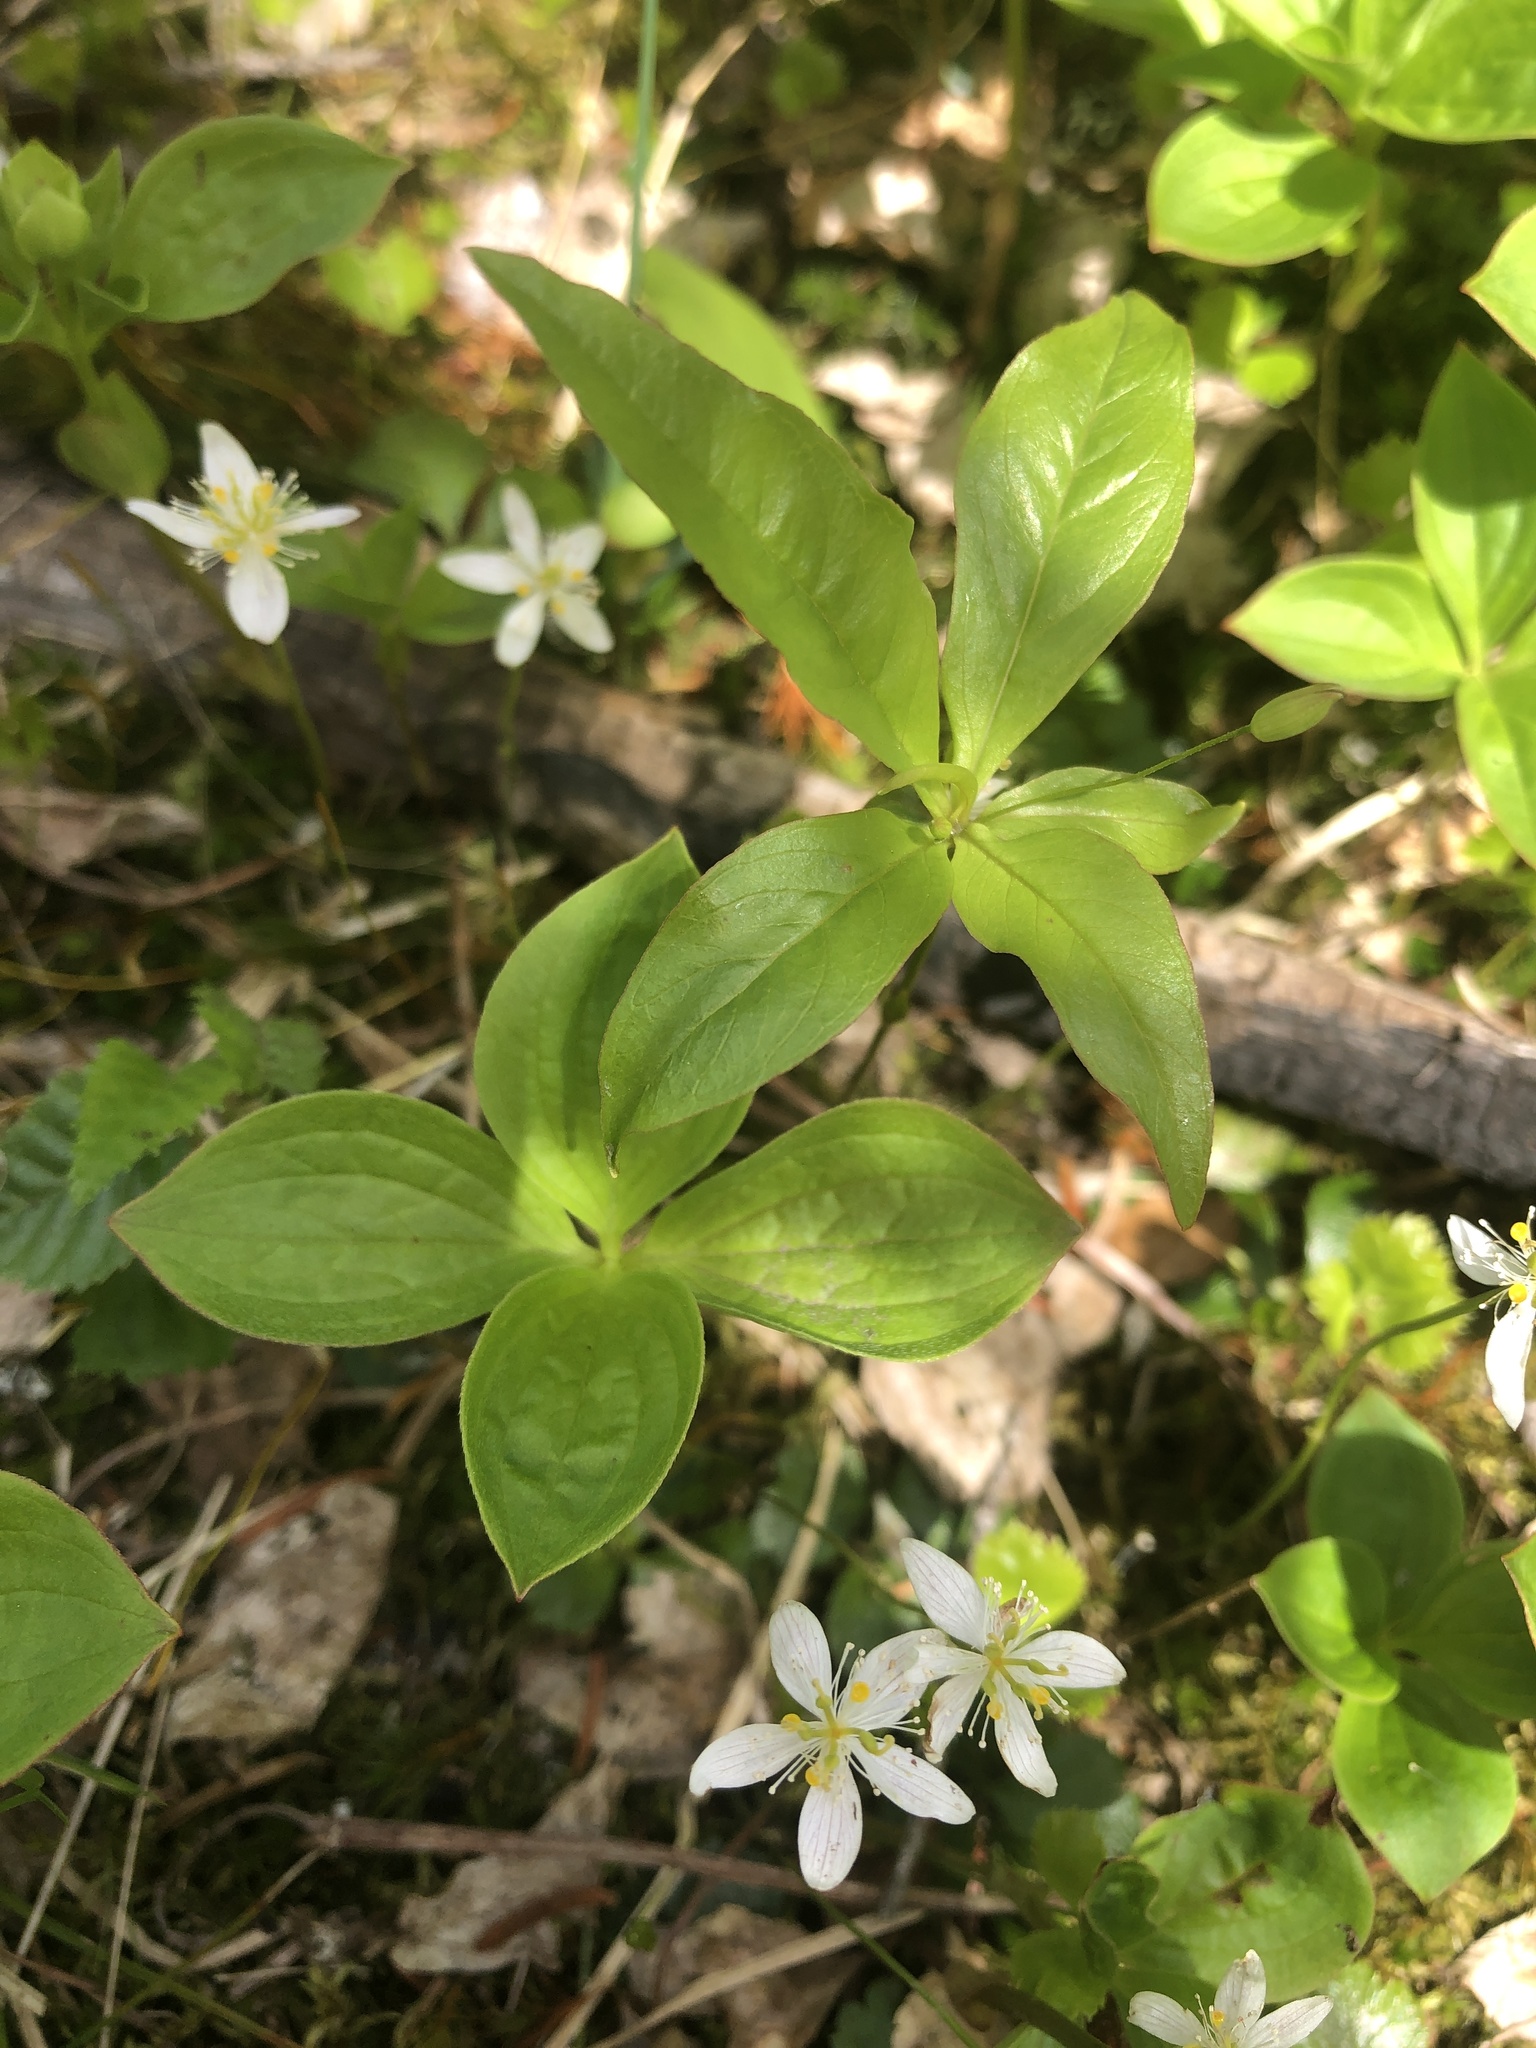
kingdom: Plantae
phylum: Tracheophyta
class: Magnoliopsida
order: Ericales
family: Primulaceae
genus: Lysimachia
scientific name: Lysimachia borealis
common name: American starflower
